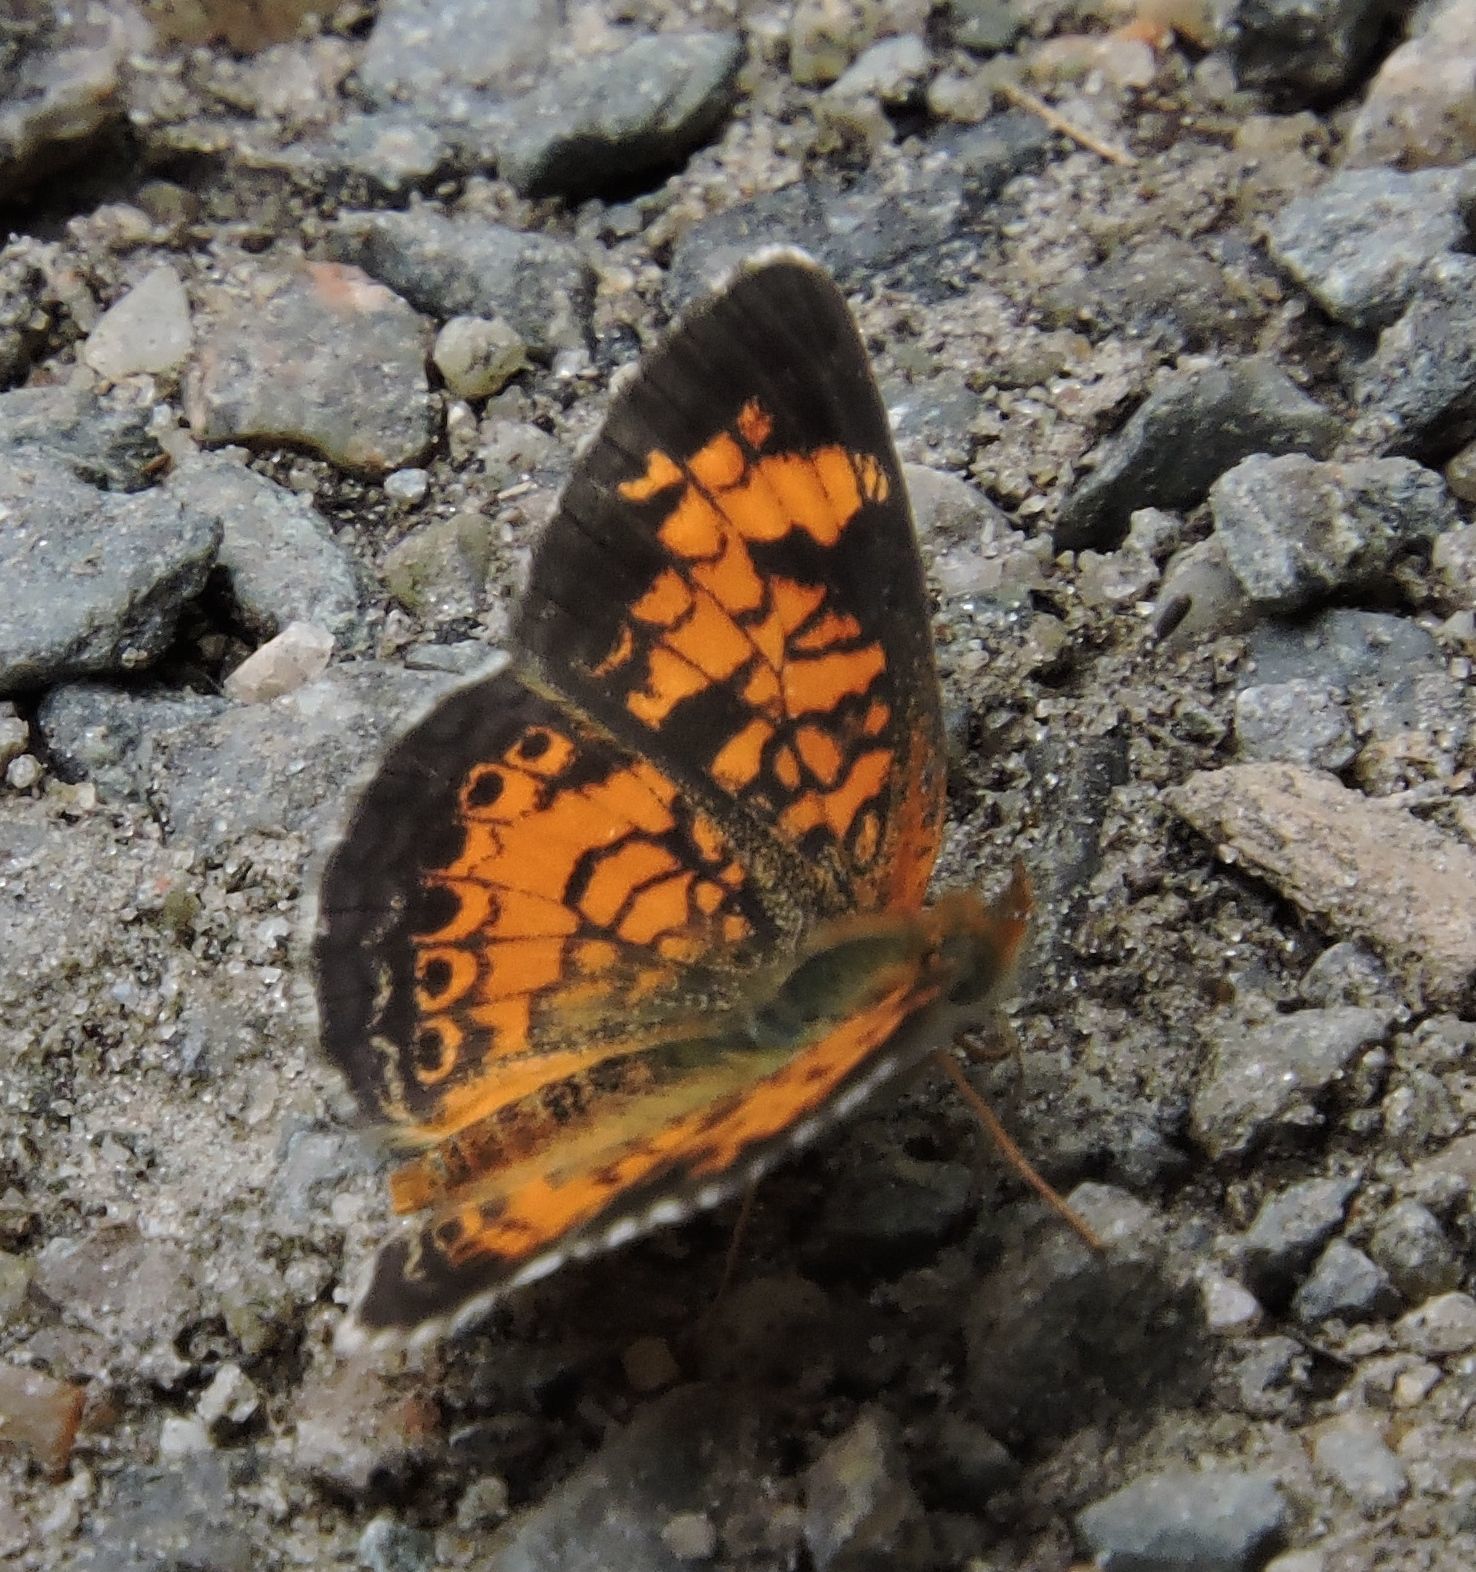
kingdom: Animalia
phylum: Arthropoda
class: Insecta
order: Lepidoptera
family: Nymphalidae
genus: Phyciodes
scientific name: Phyciodes tharos
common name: Pearl crescent
